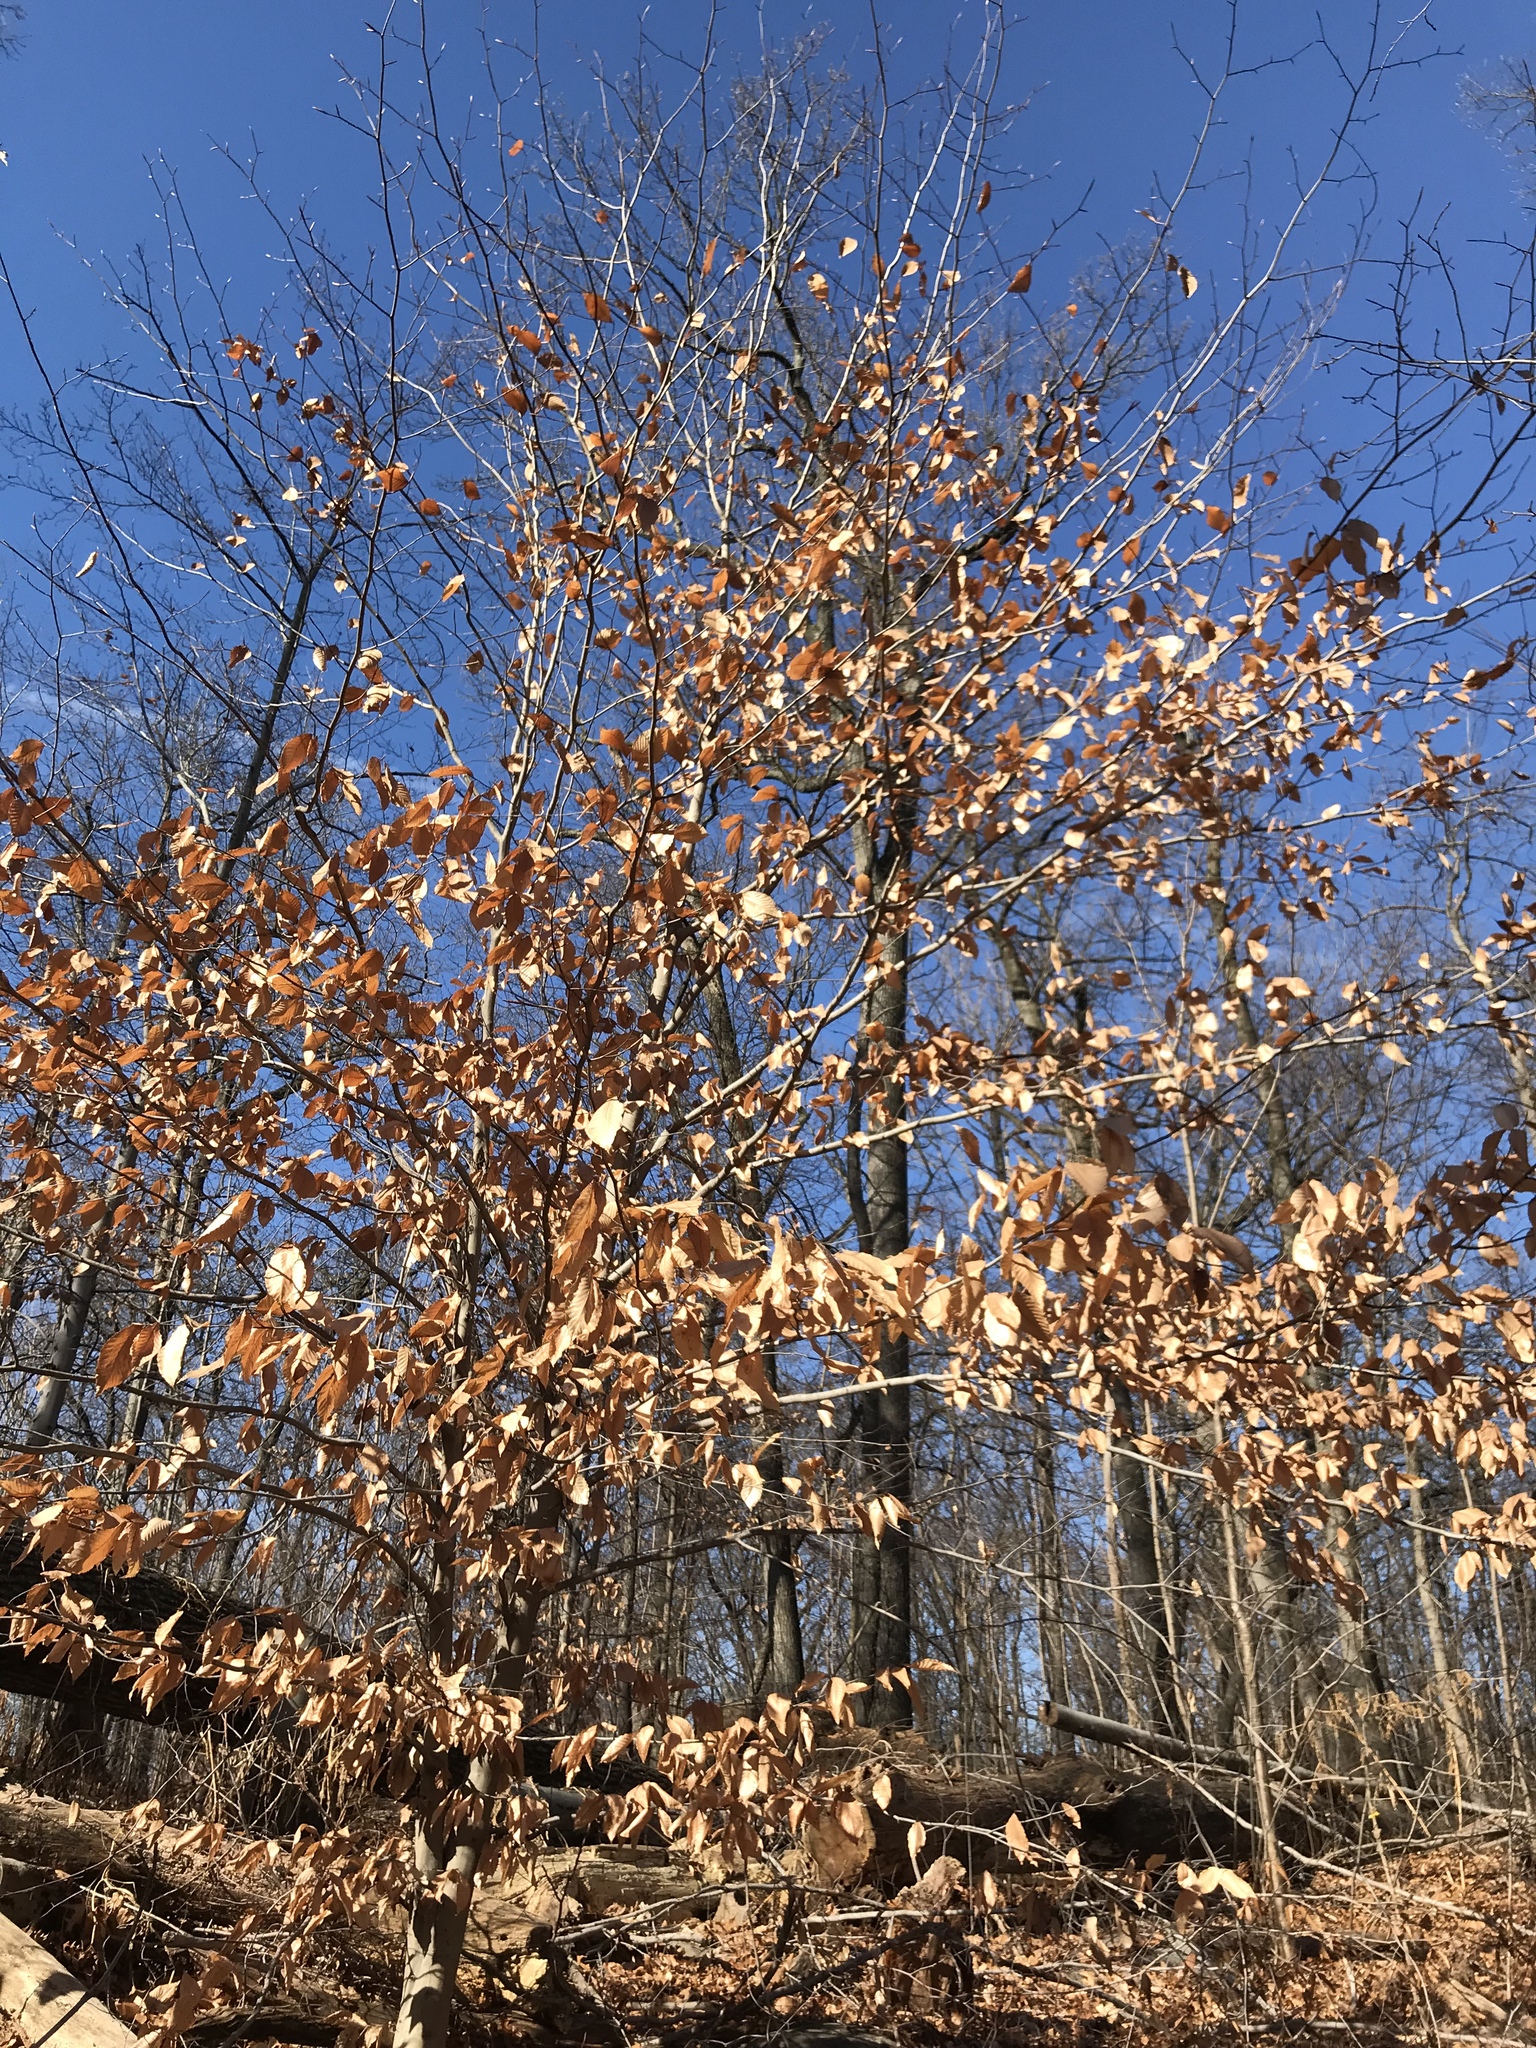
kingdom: Plantae
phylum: Tracheophyta
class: Magnoliopsida
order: Fagales
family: Fagaceae
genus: Fagus
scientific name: Fagus grandifolia
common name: American beech
